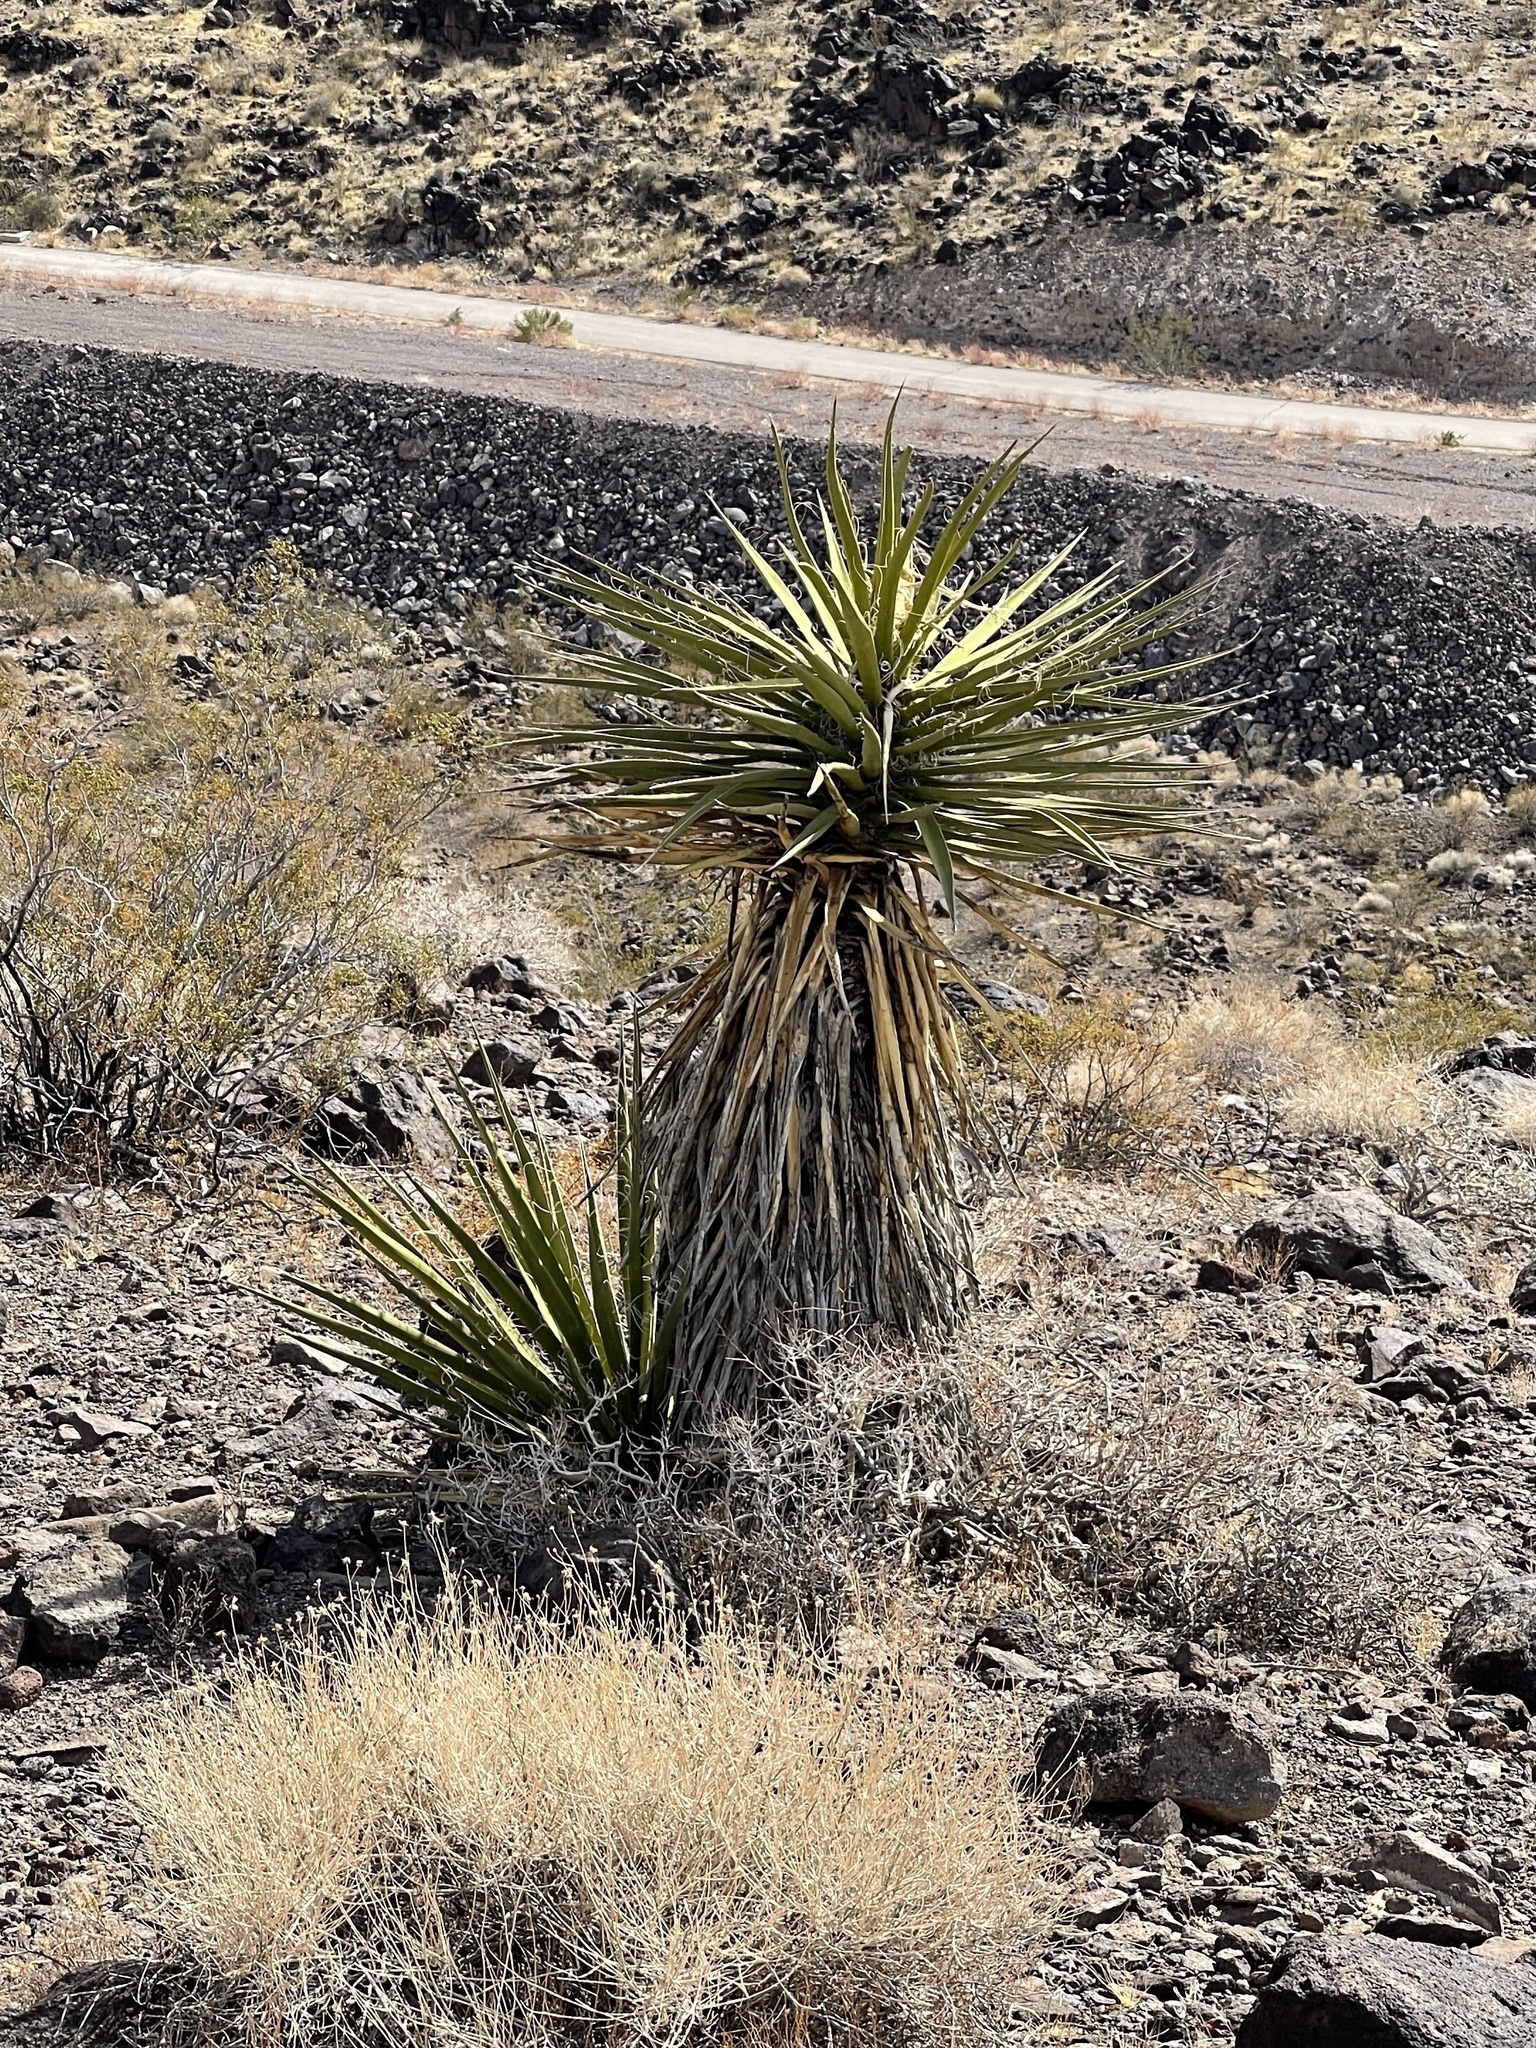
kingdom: Plantae
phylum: Tracheophyta
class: Liliopsida
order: Asparagales
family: Asparagaceae
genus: Yucca
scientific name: Yucca schidigera
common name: Mojave yucca
